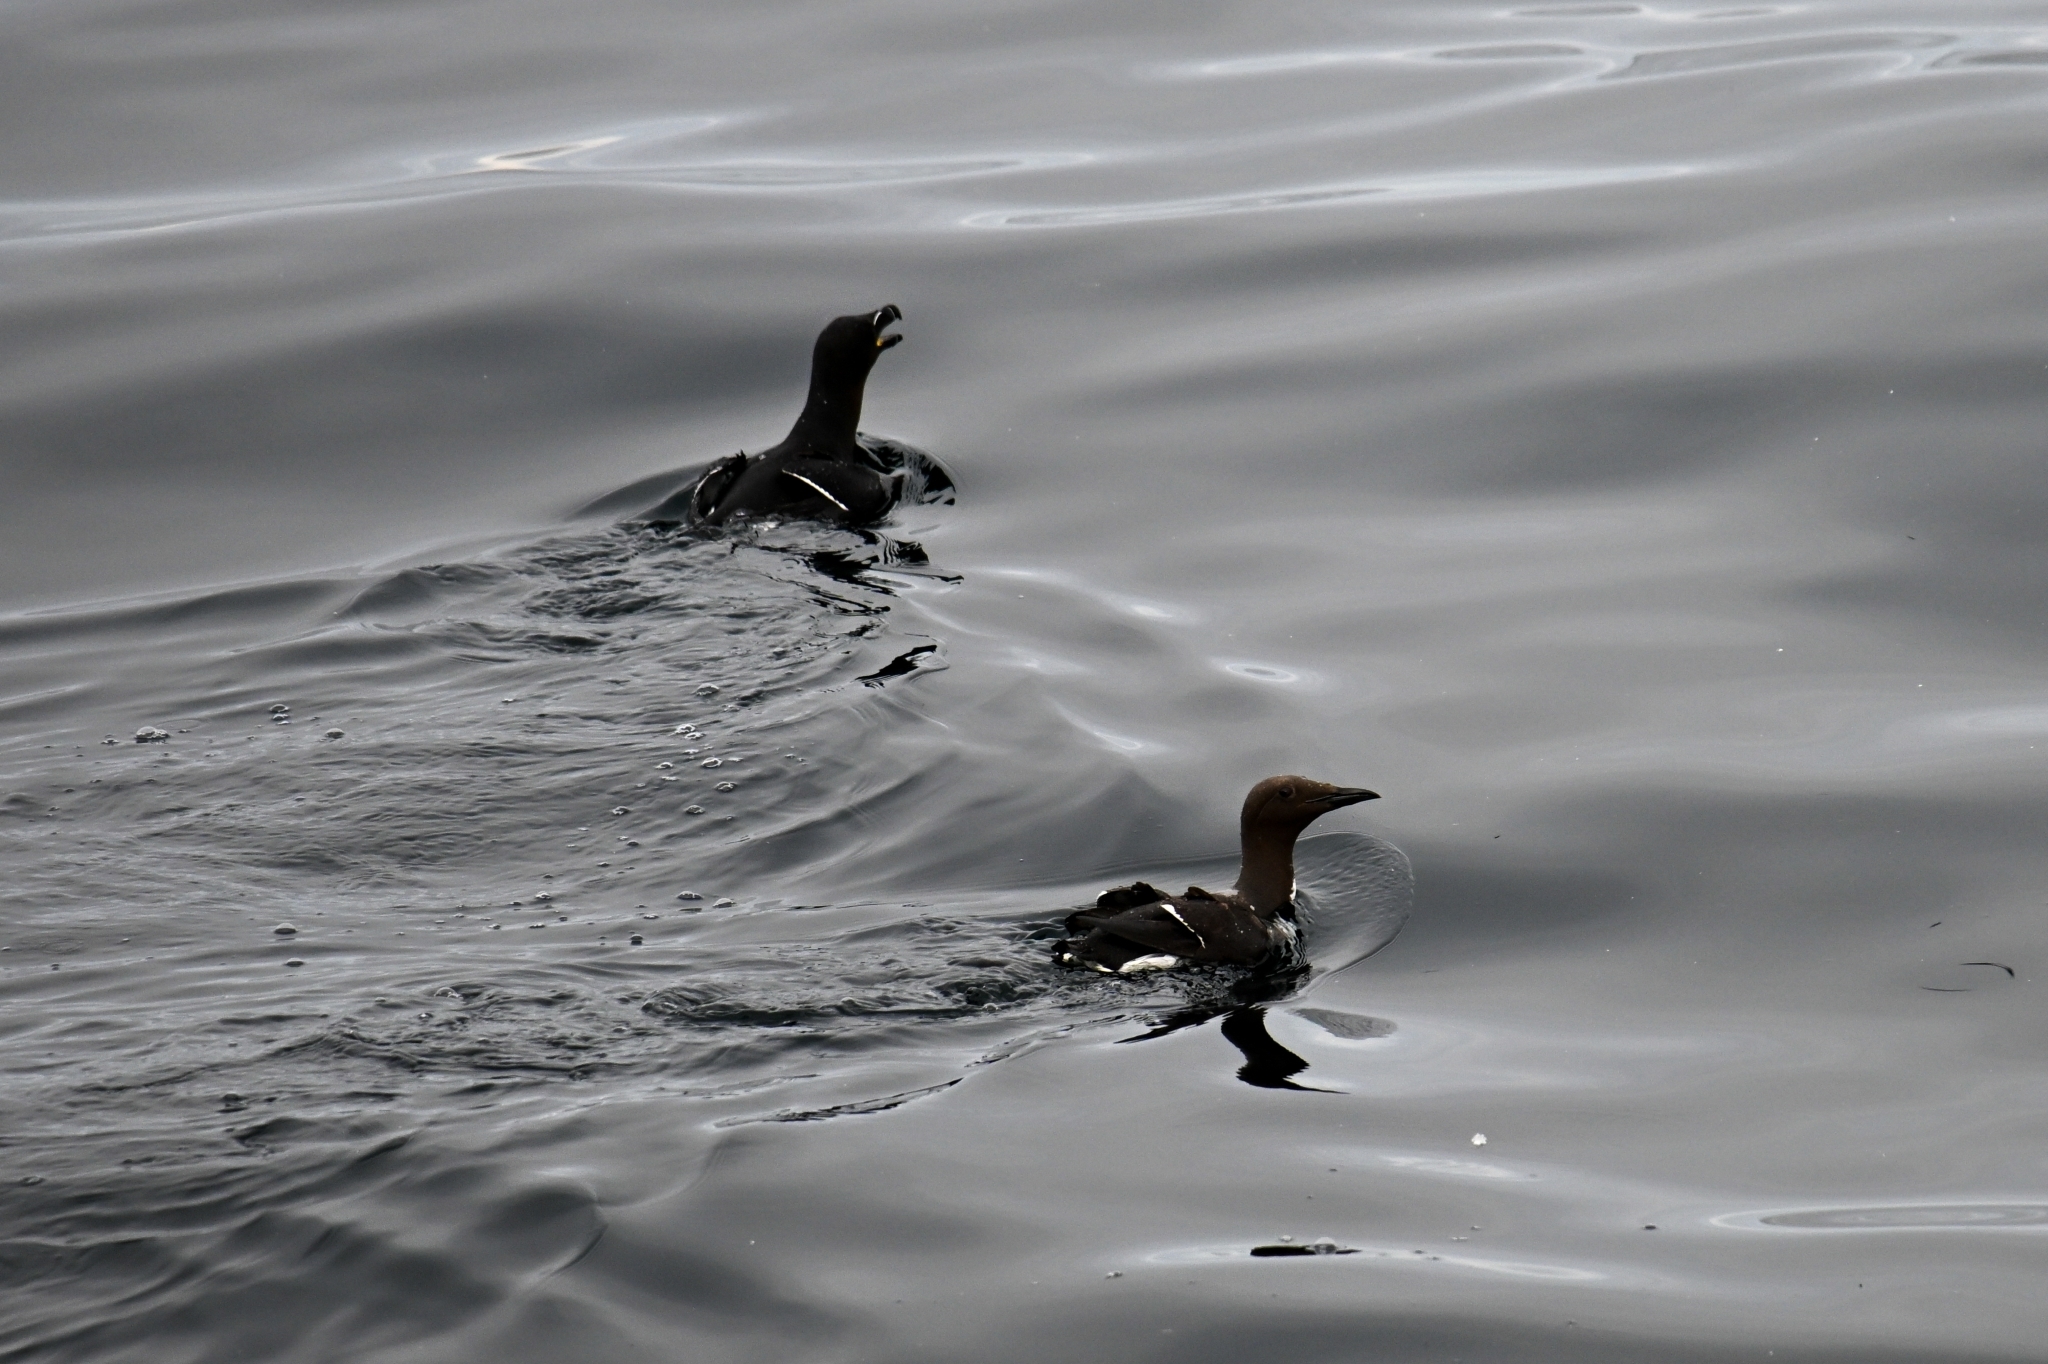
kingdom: Animalia
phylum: Chordata
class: Aves
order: Charadriiformes
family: Alcidae
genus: Uria
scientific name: Uria aalge
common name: Common murre
